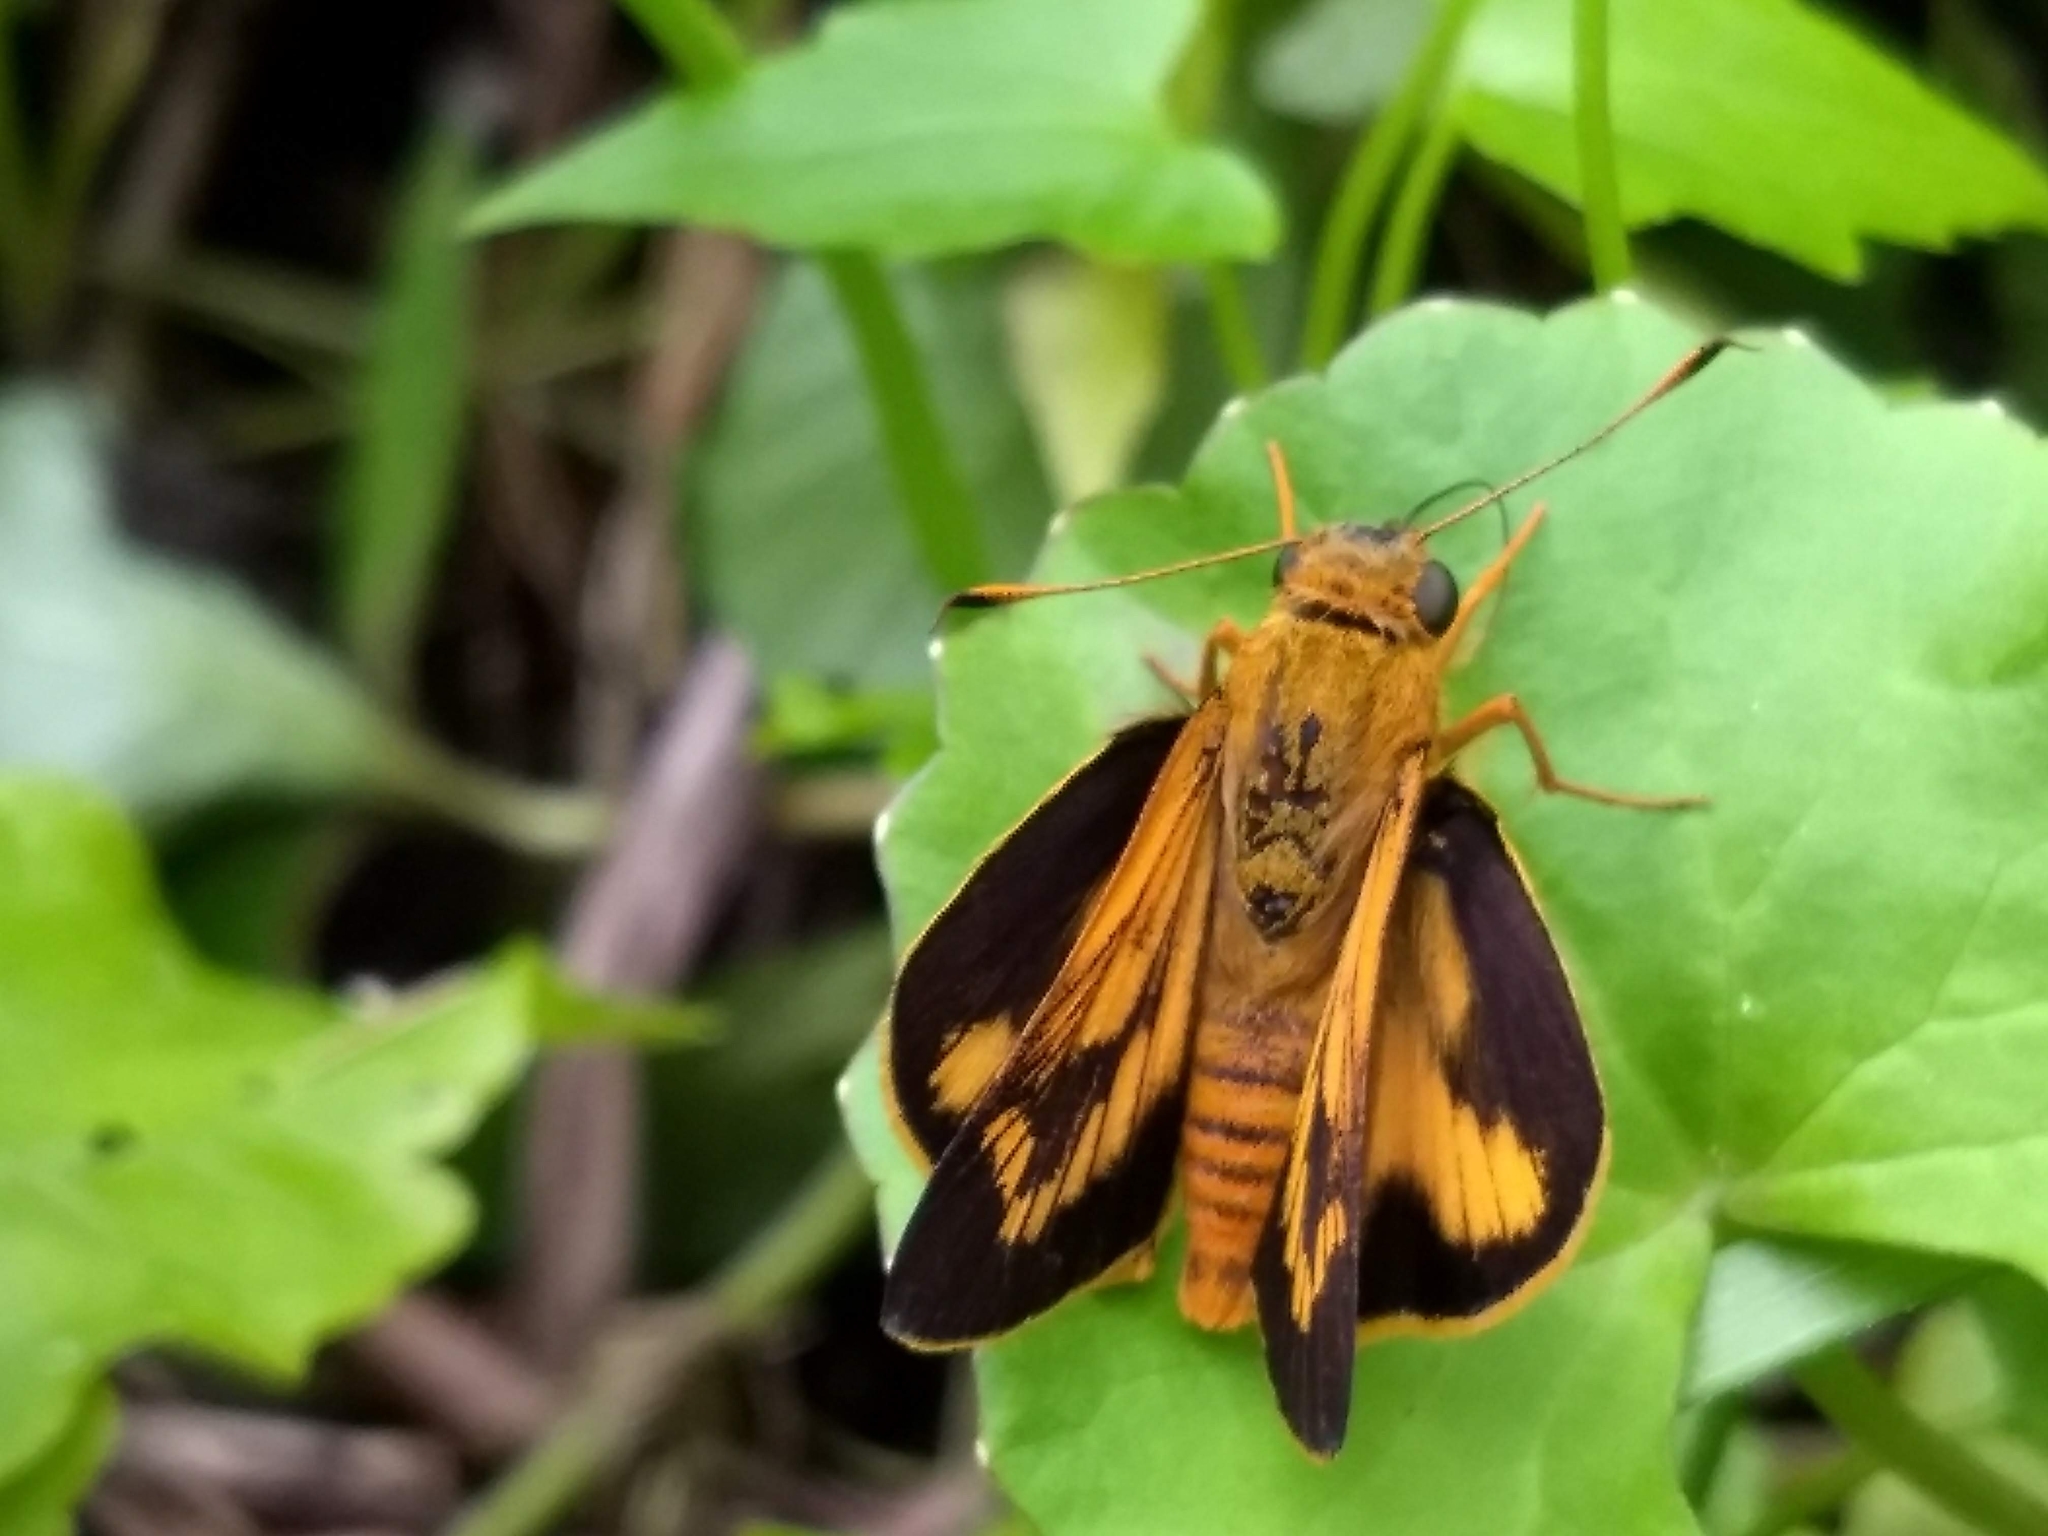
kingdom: Animalia
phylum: Arthropoda
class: Insecta
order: Lepidoptera
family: Hesperiidae
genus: Cephrenes
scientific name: Cephrenes
